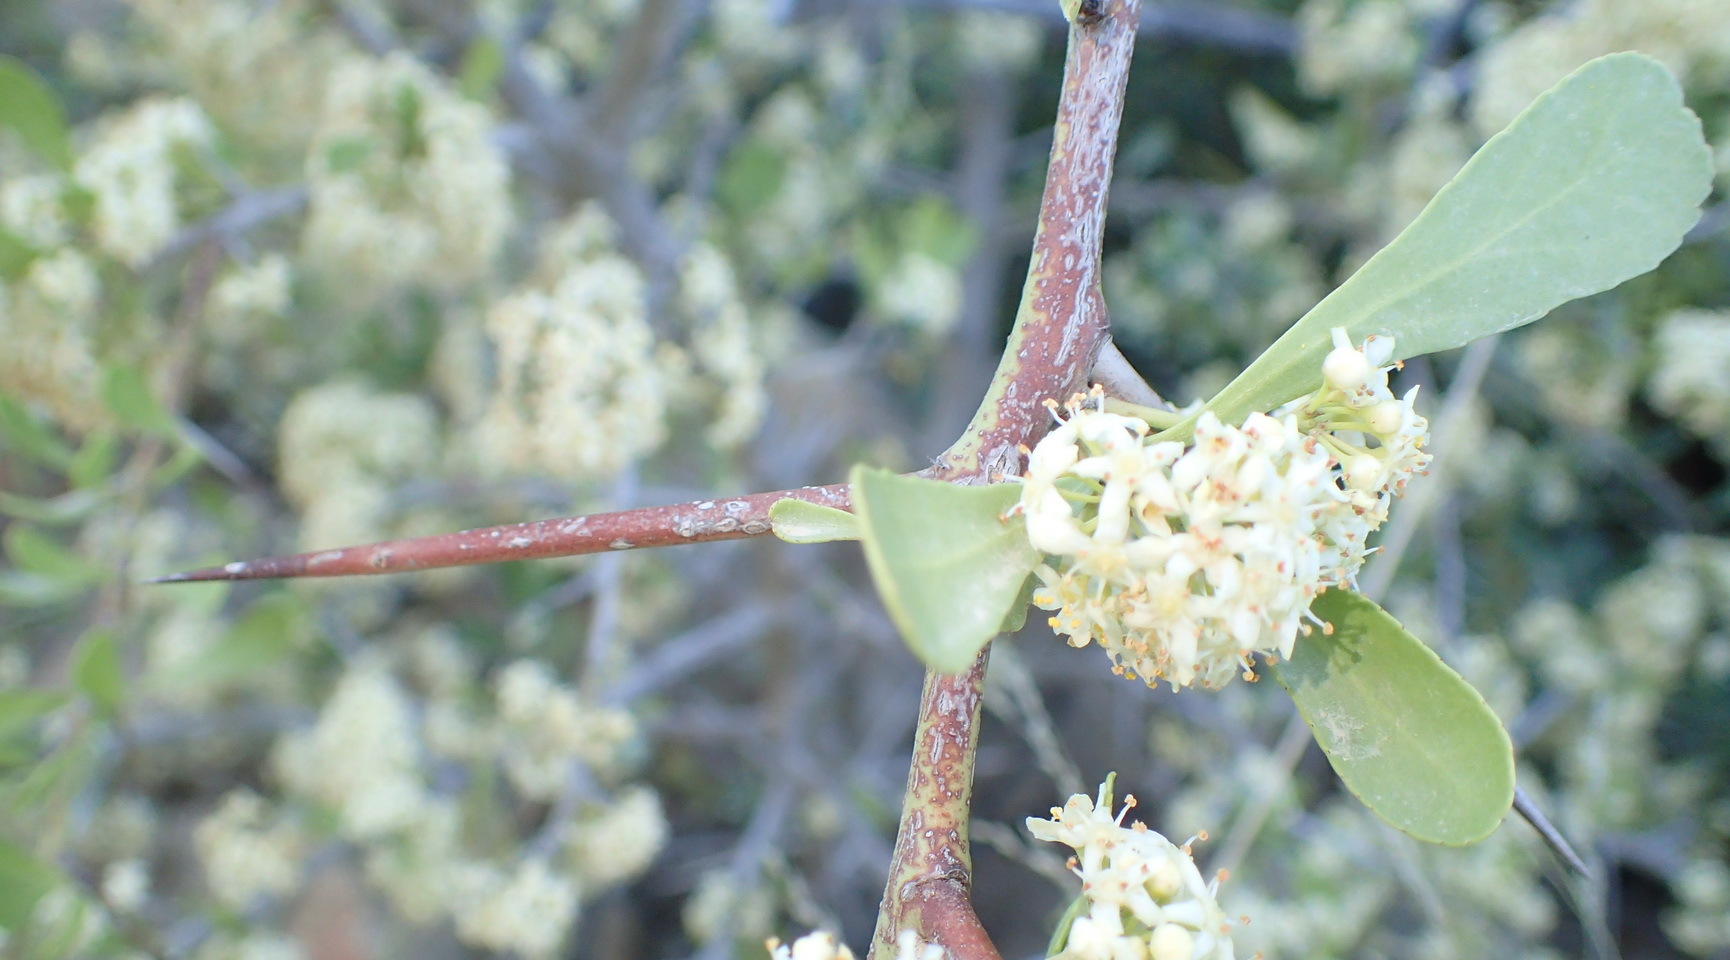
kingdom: Plantae
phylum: Tracheophyta
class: Magnoliopsida
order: Celastrales
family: Celastraceae
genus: Gymnosporia
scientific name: Gymnosporia buxifolia
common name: Common spike-thorn
